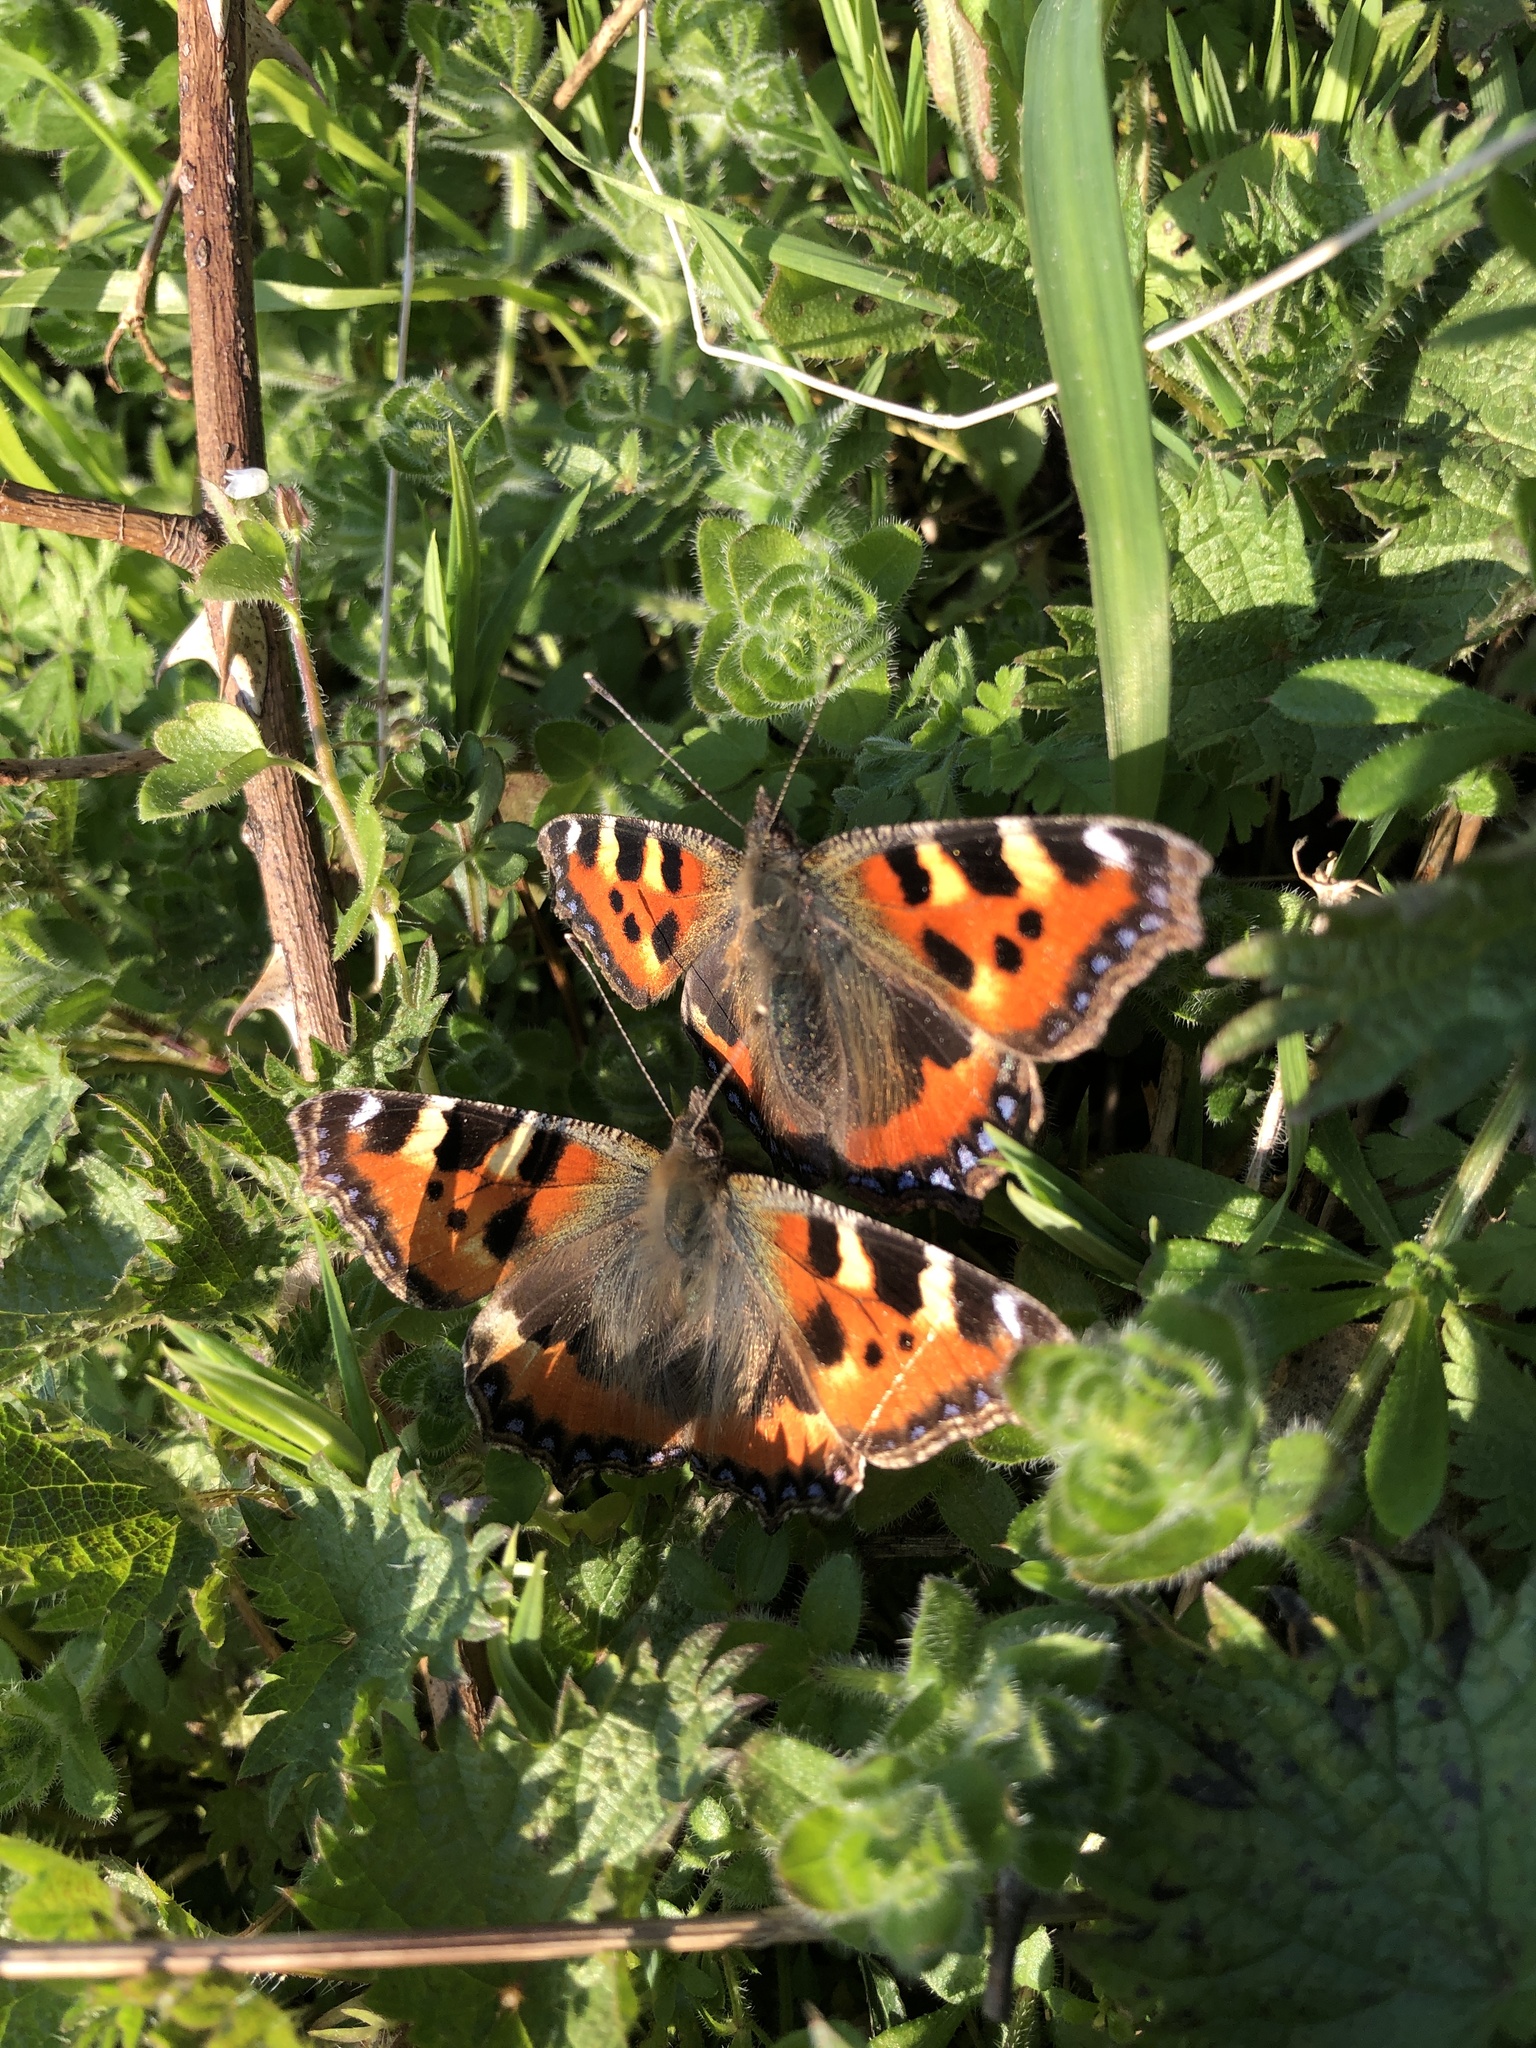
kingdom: Animalia
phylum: Arthropoda
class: Insecta
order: Lepidoptera
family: Nymphalidae
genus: Aglais
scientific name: Aglais urticae
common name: Small tortoiseshell
